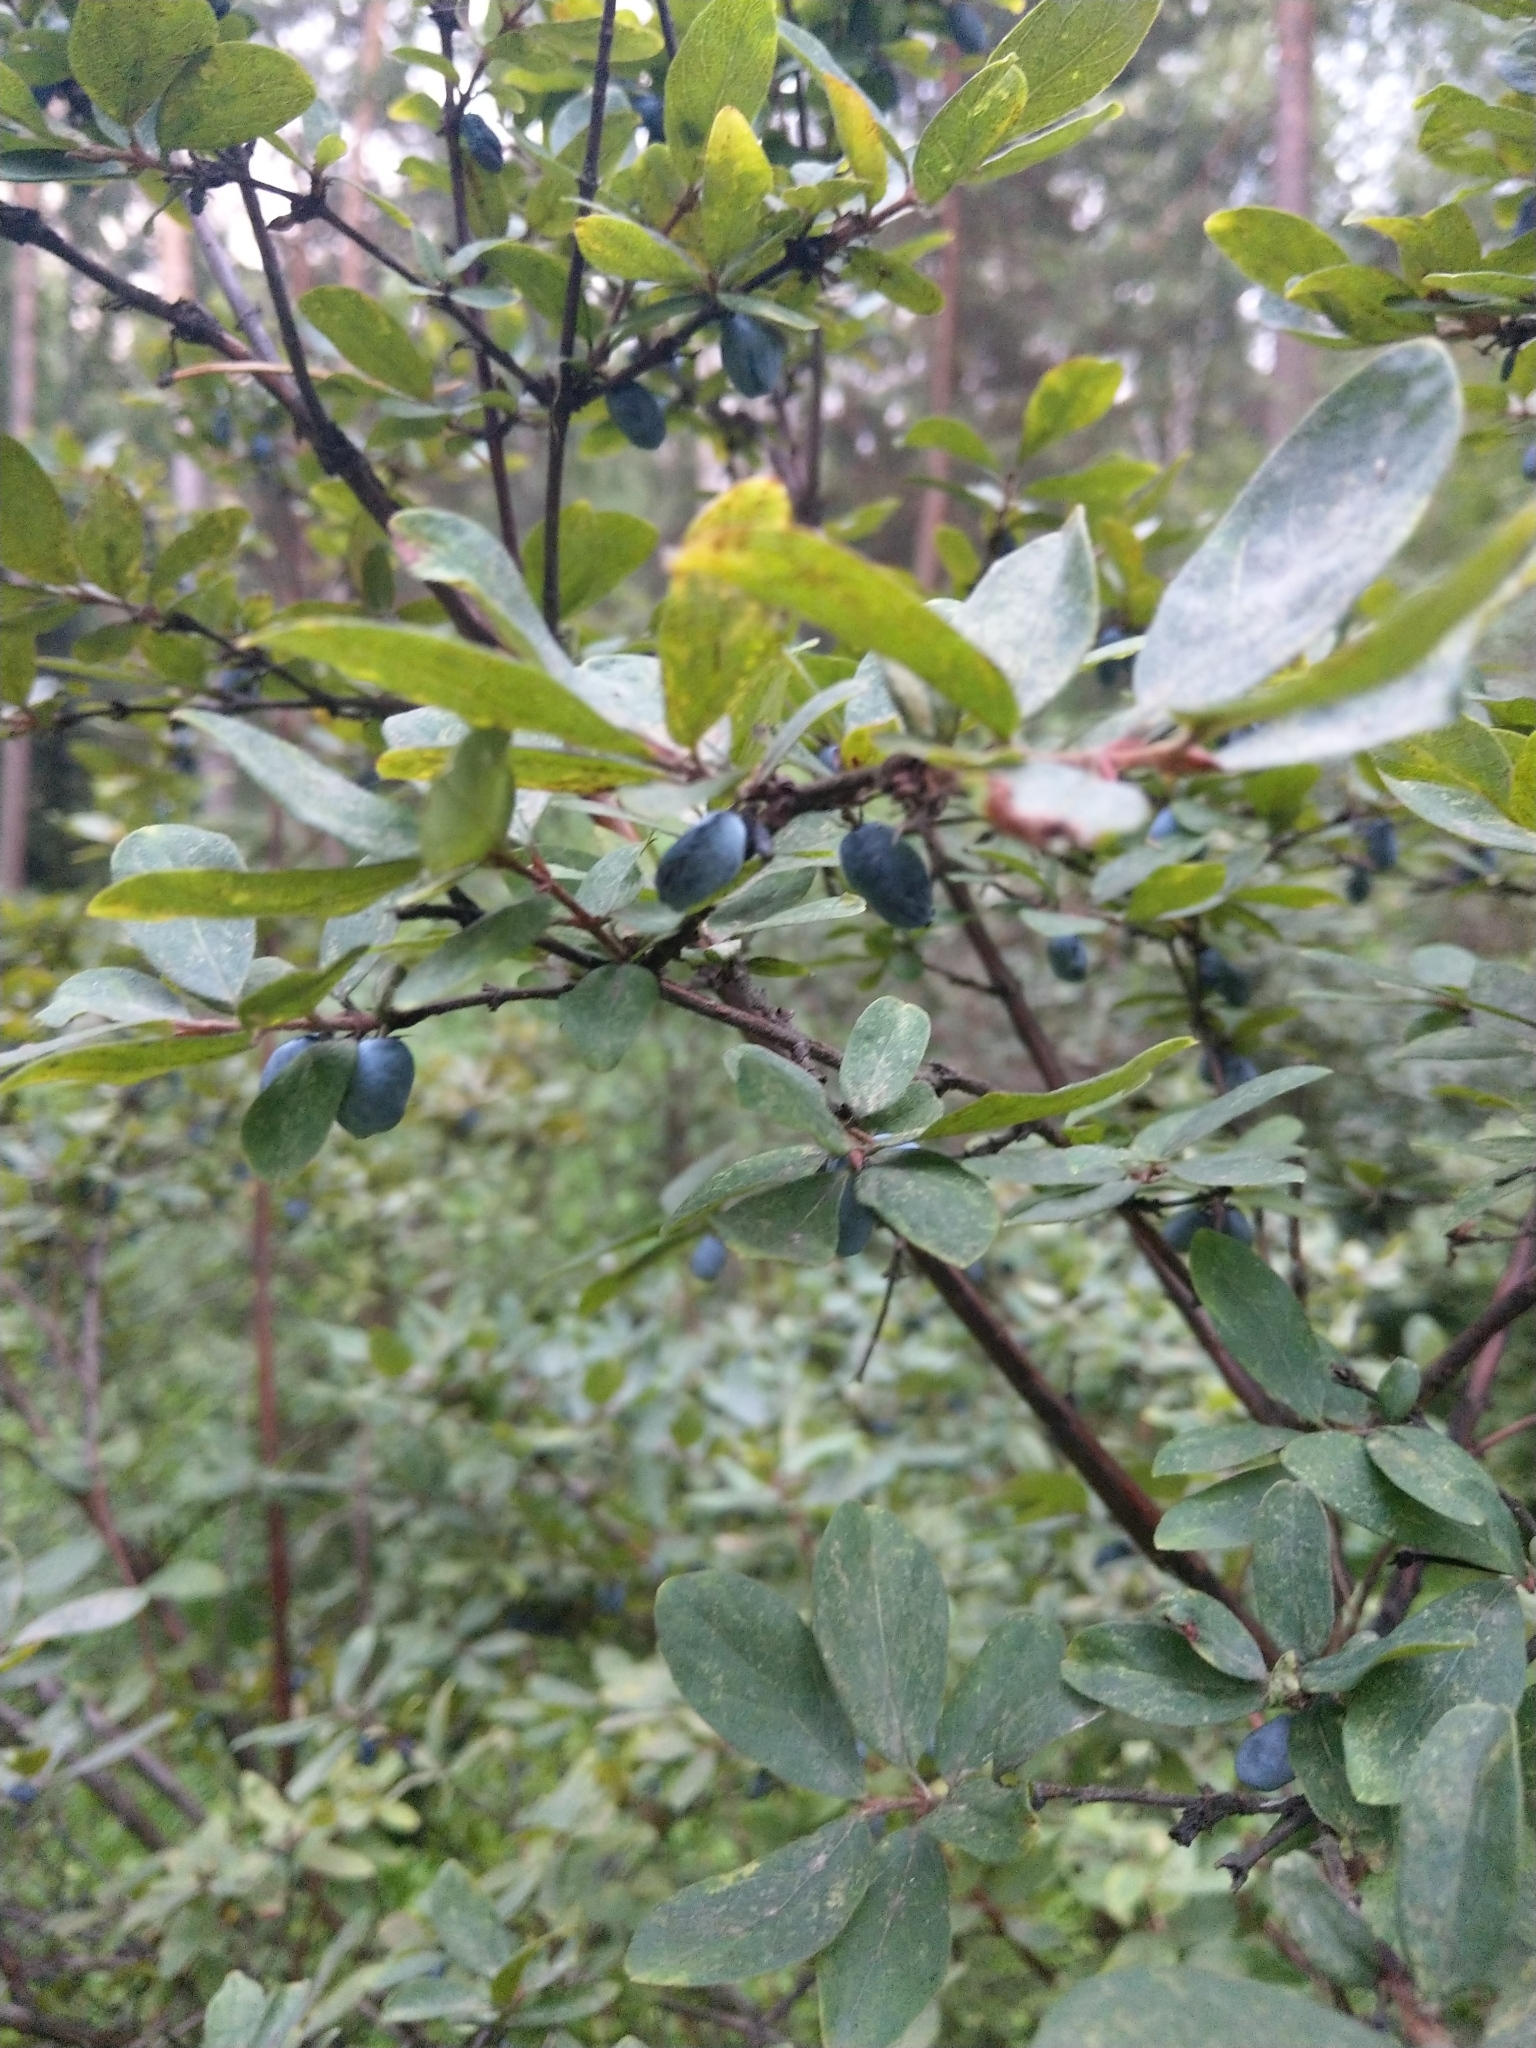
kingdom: Plantae
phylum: Tracheophyta
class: Magnoliopsida
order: Dipsacales
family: Caprifoliaceae
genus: Lonicera
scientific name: Lonicera caerulea
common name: Blue honeysuckle
